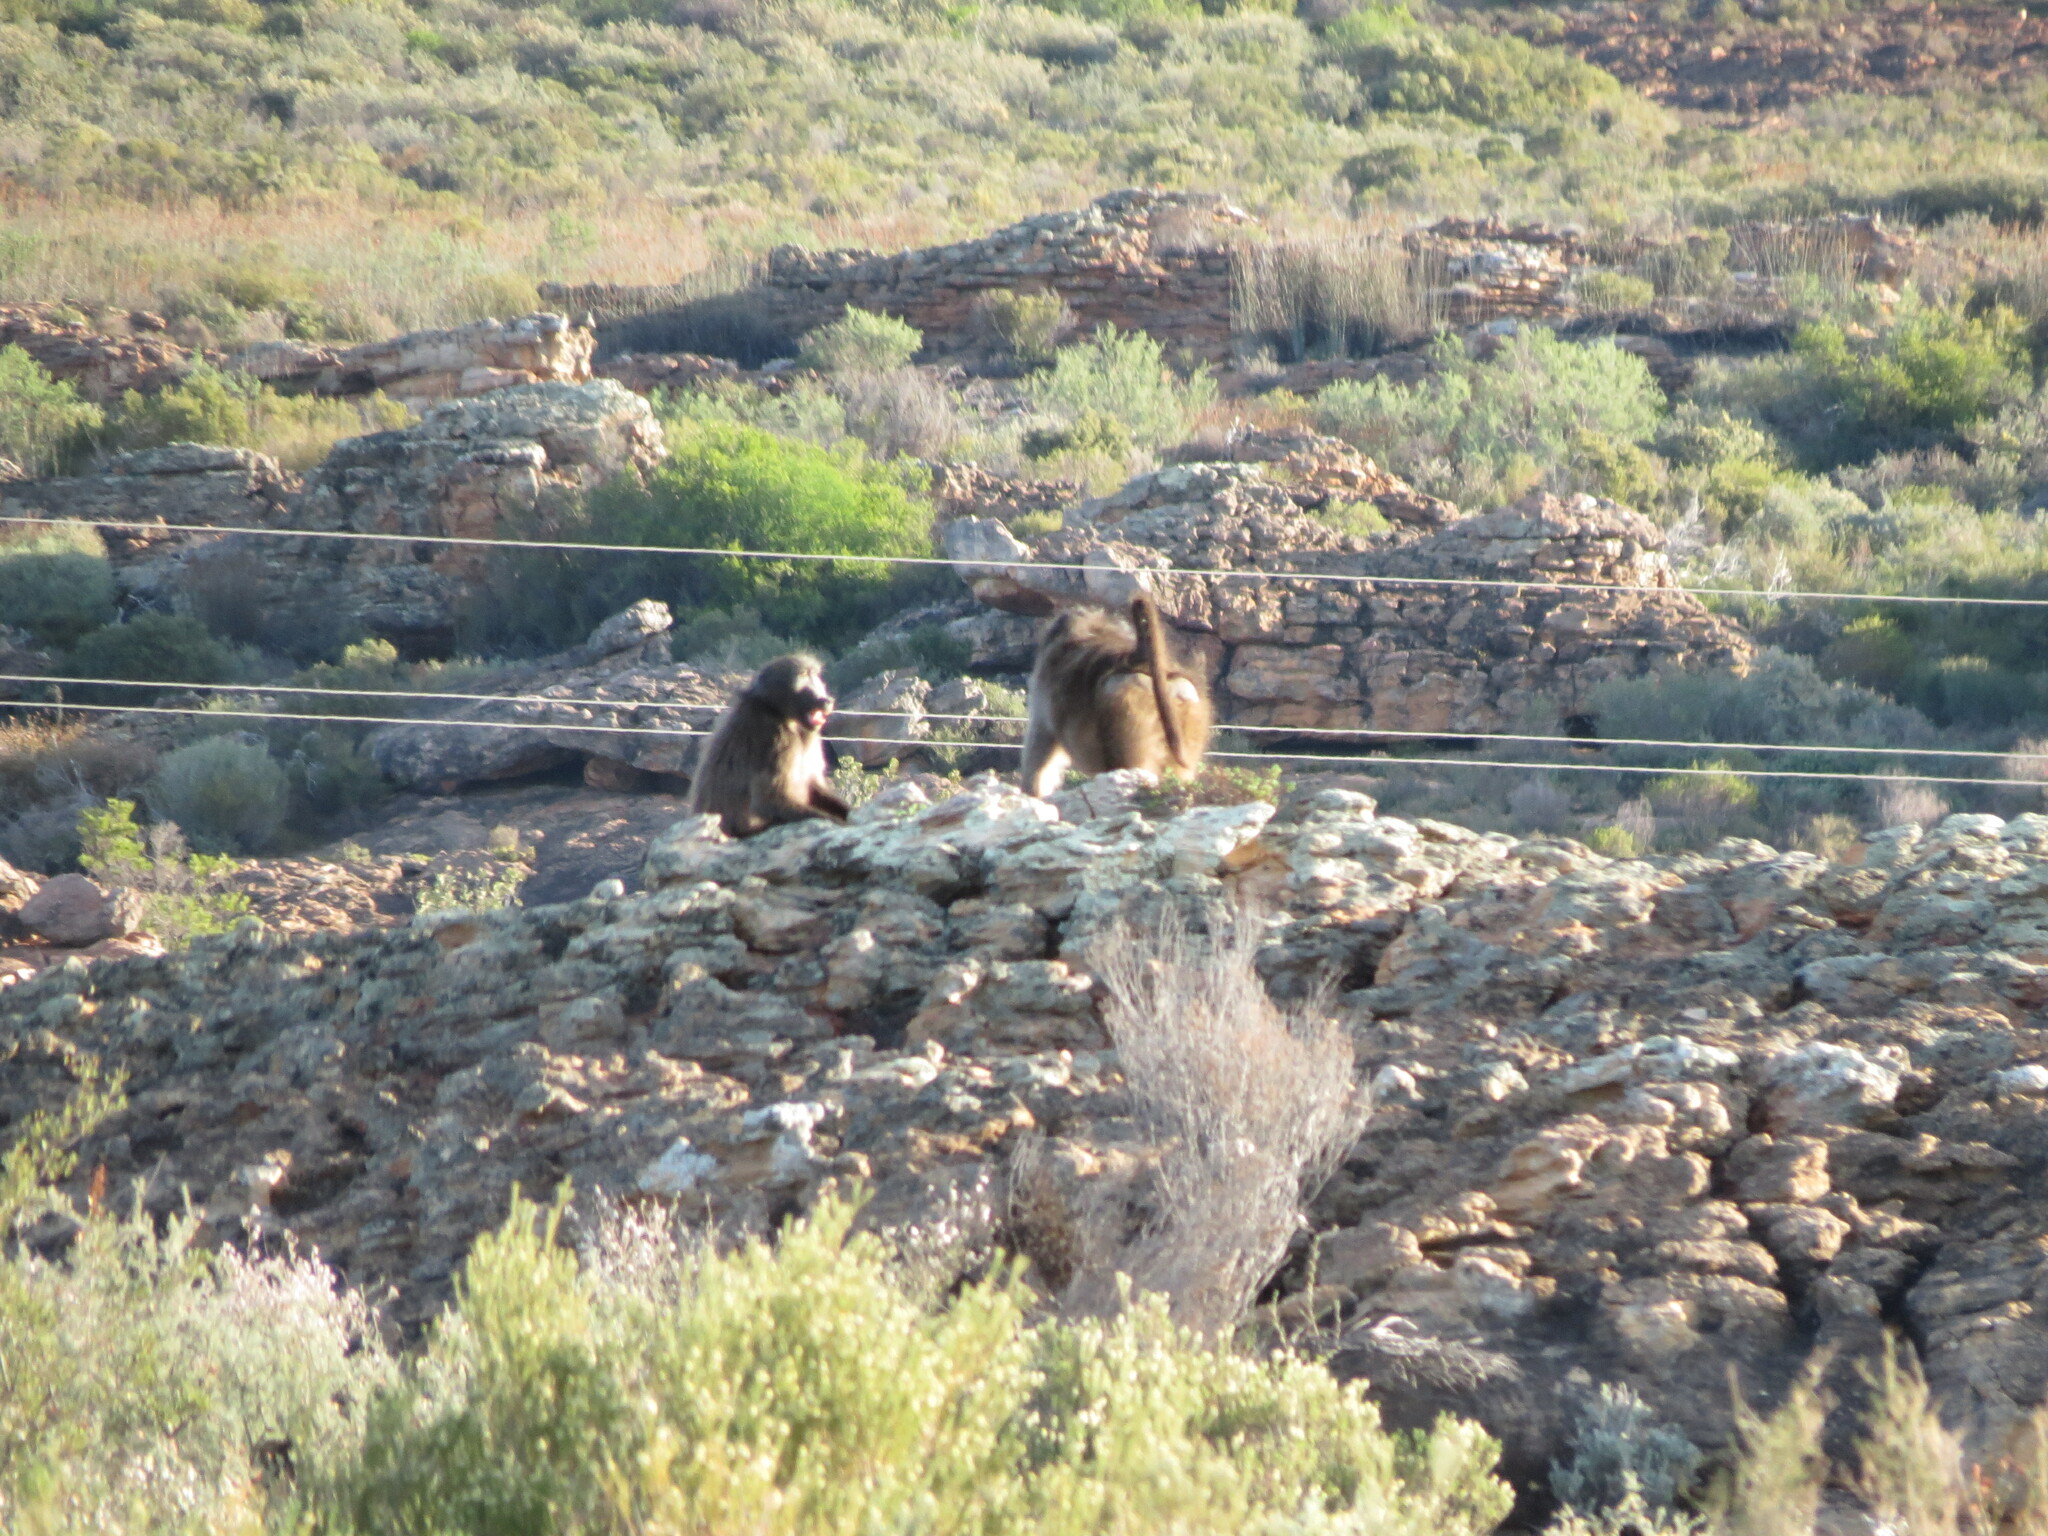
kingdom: Animalia
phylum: Chordata
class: Mammalia
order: Primates
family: Cercopithecidae
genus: Papio
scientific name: Papio ursinus
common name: Chacma baboon
